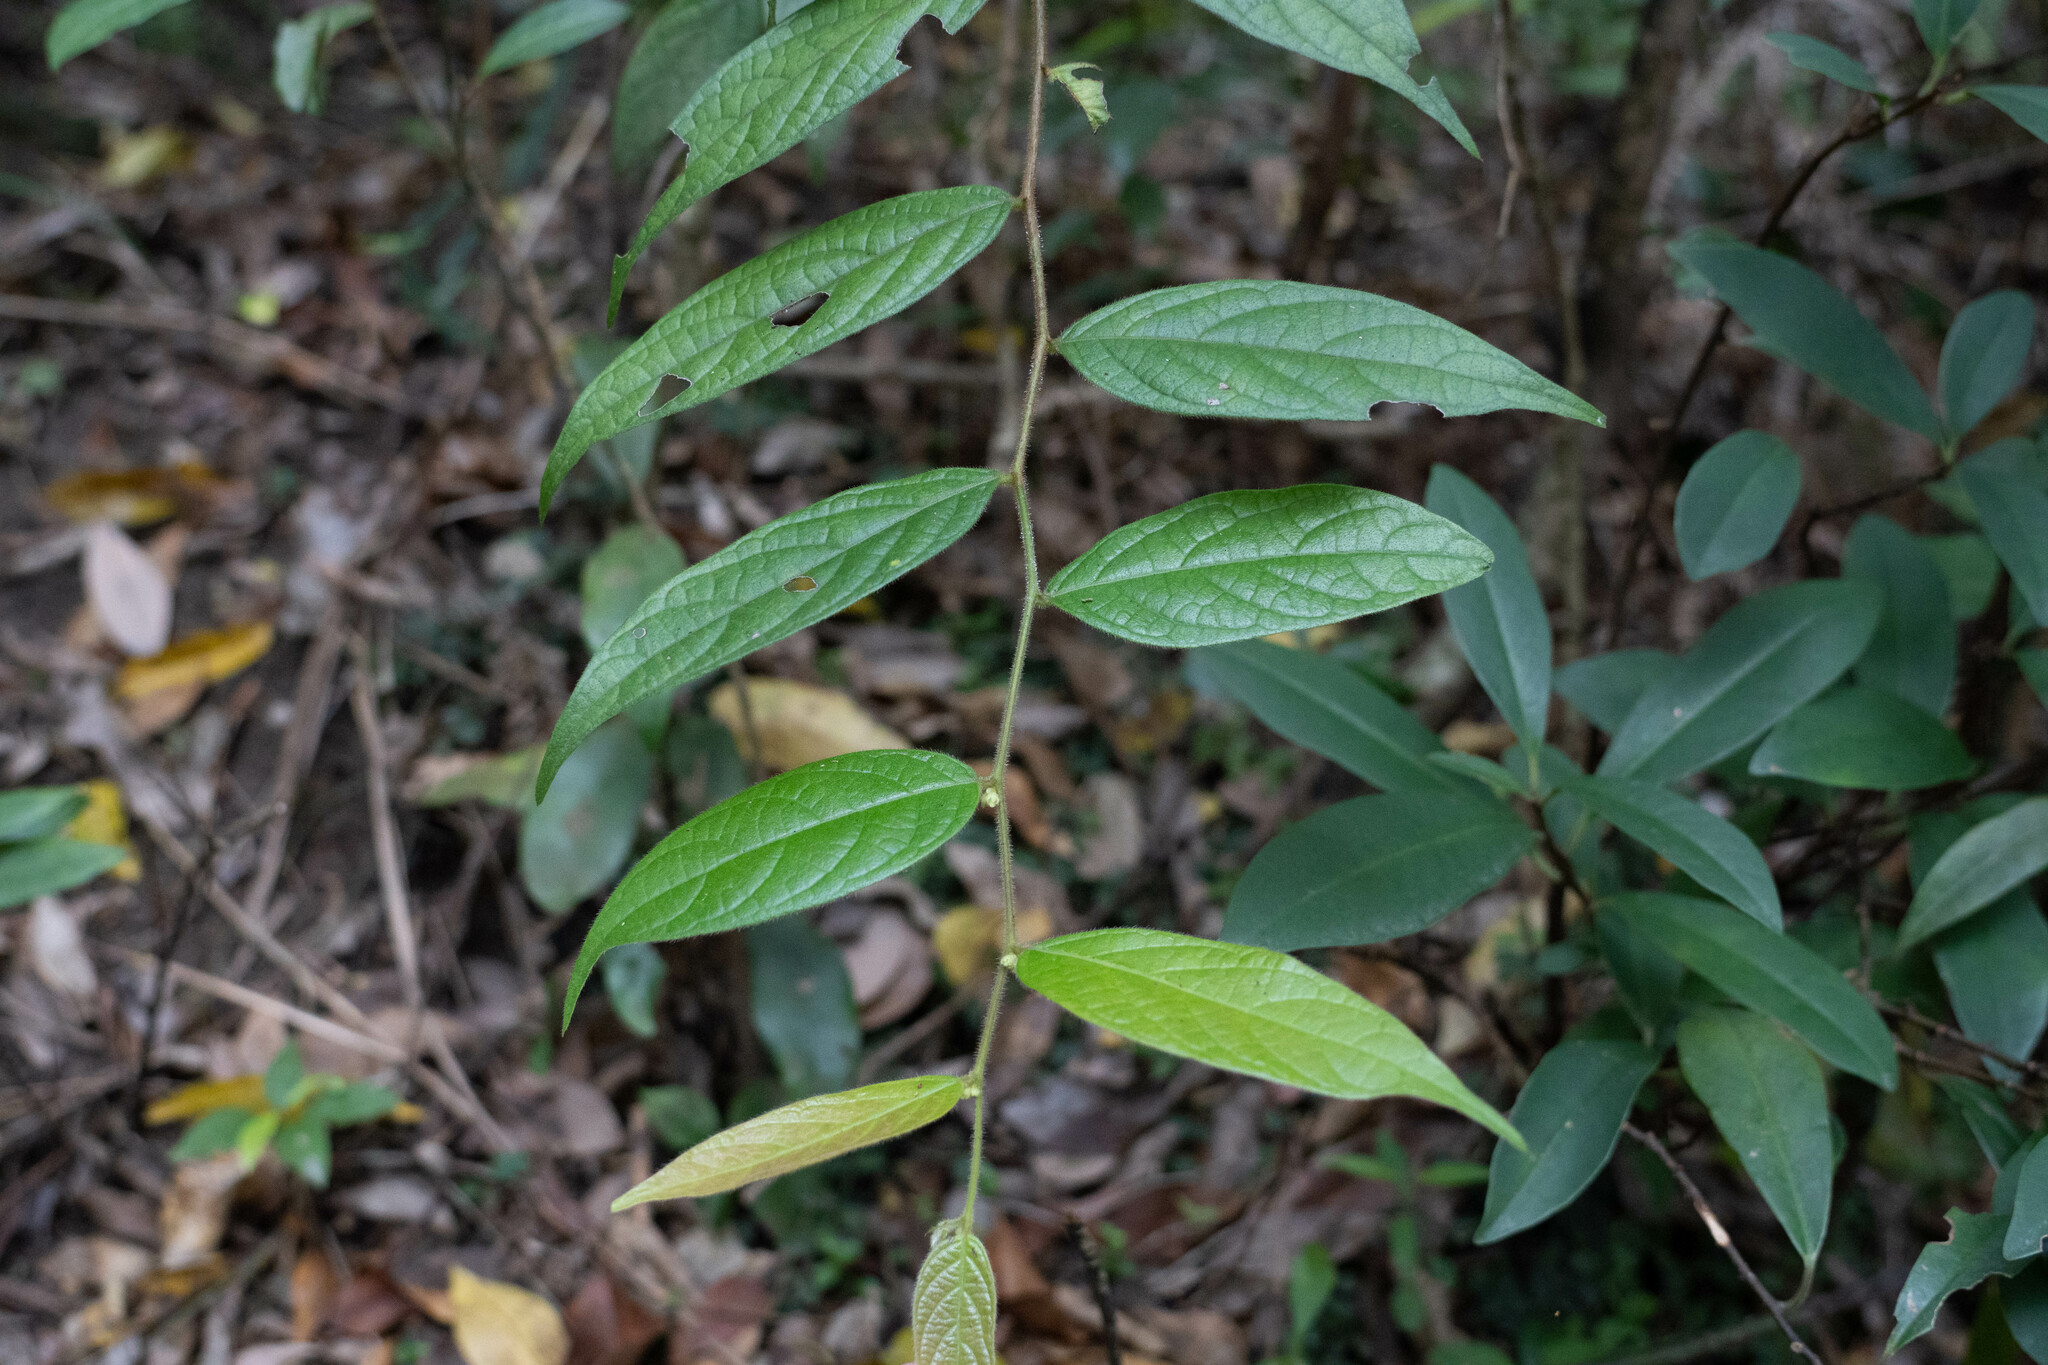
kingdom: Plantae
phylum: Tracheophyta
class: Magnoliopsida
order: Malpighiales
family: Phyllanthaceae
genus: Glochidion
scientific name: Glochidion eriocarpum
